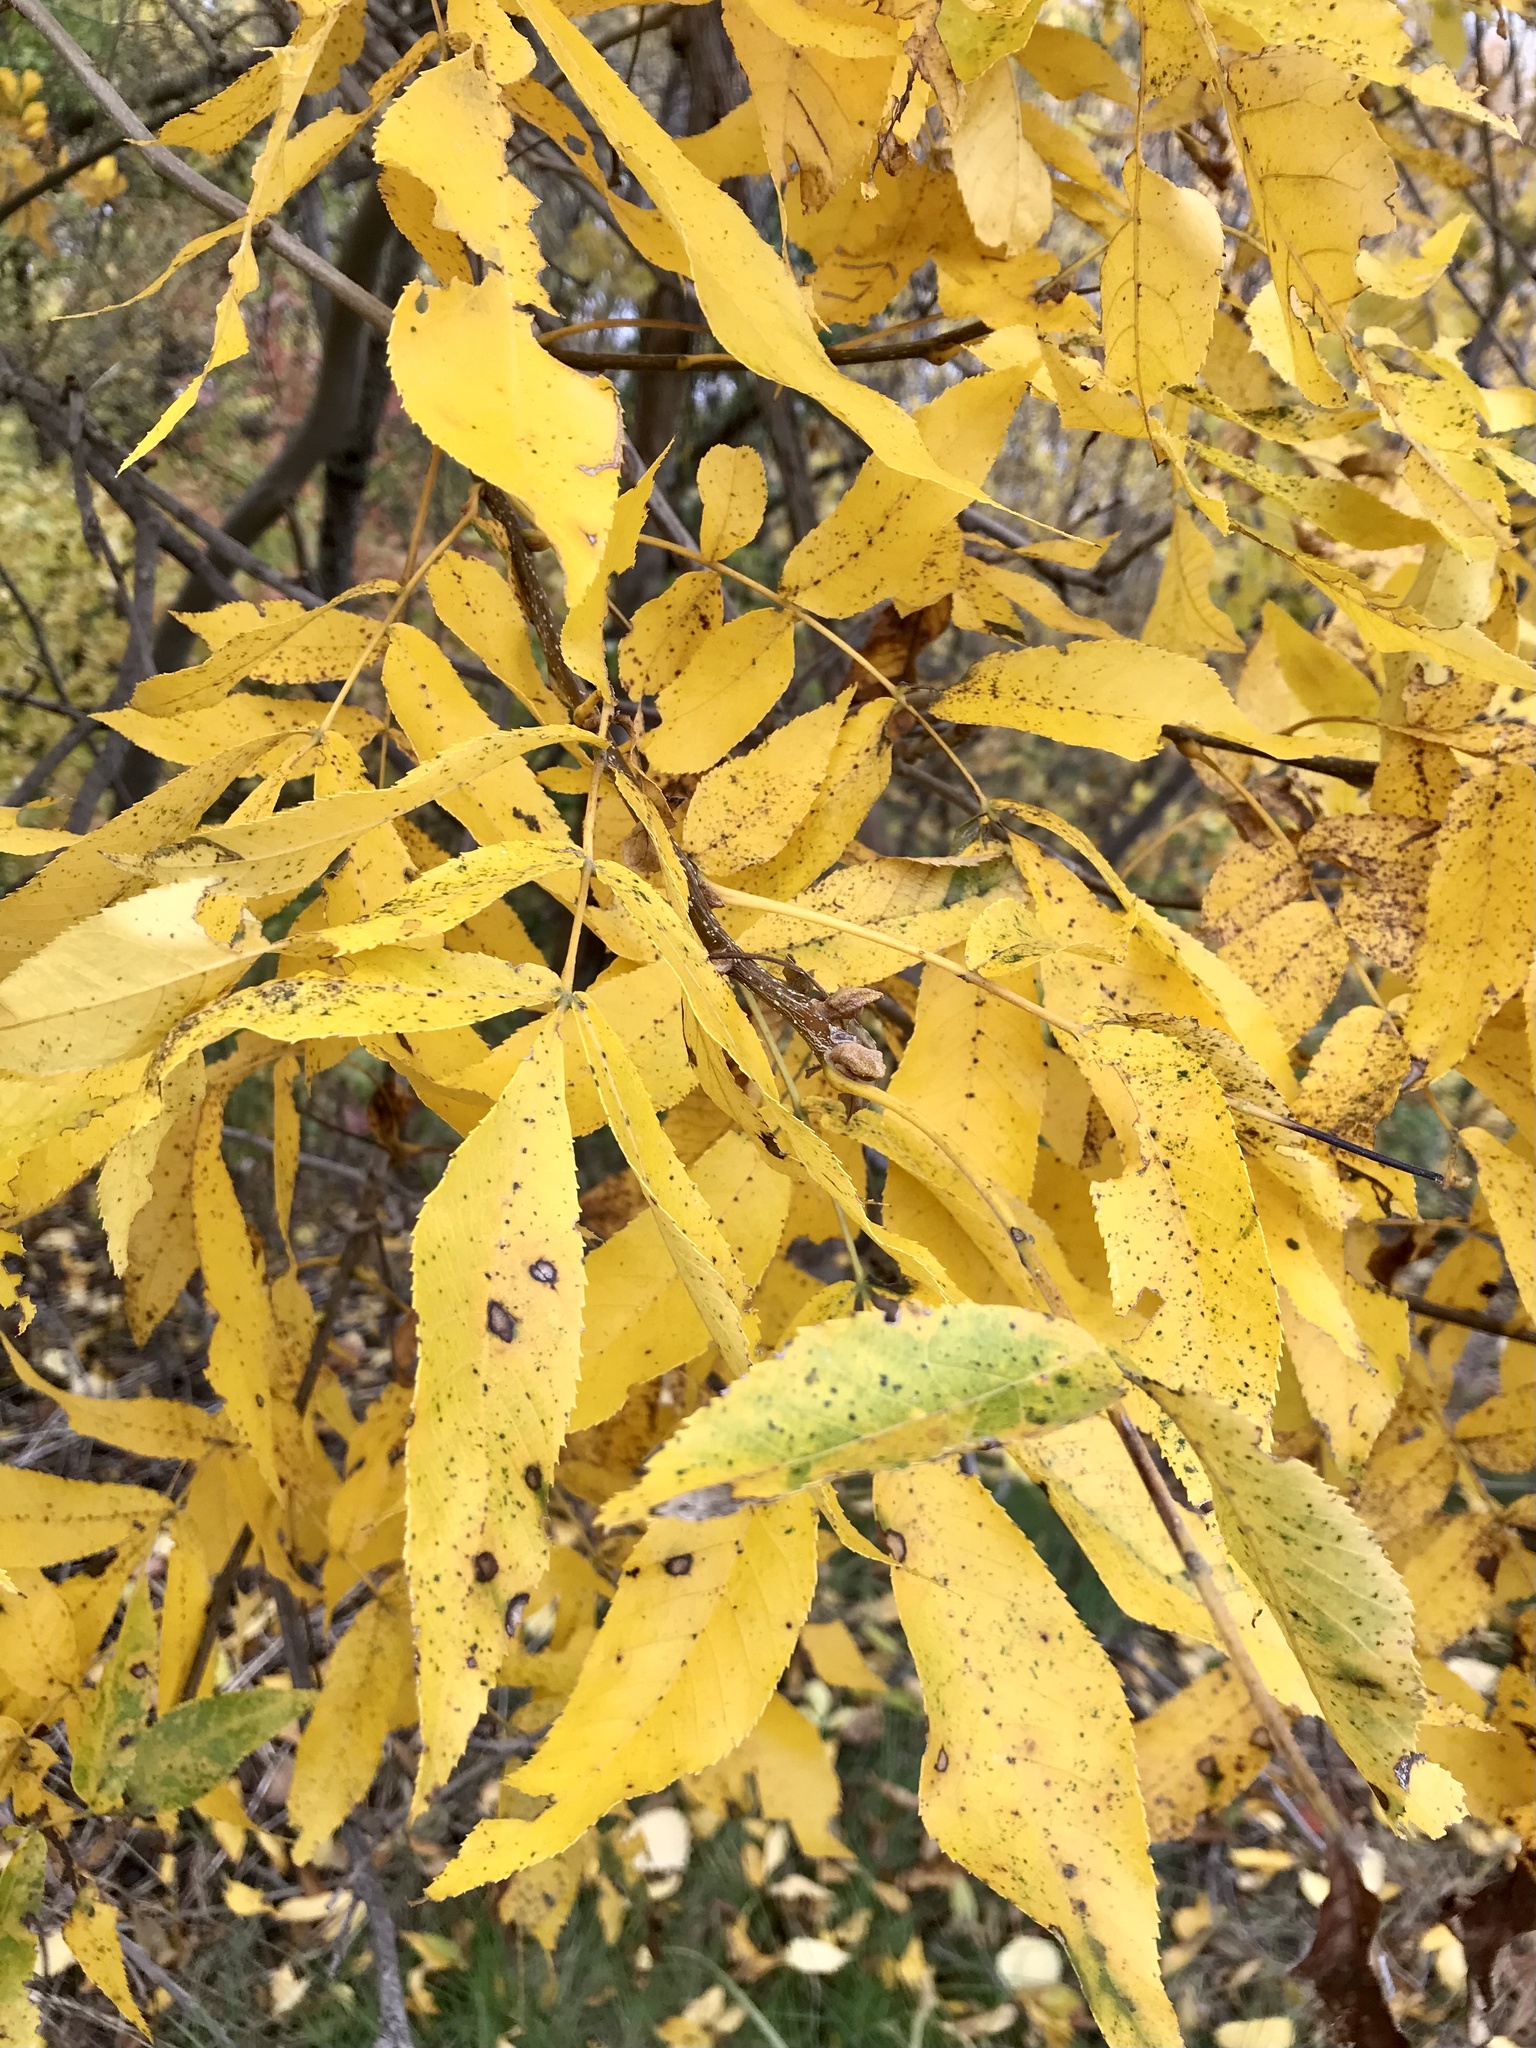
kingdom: Plantae
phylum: Tracheophyta
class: Magnoliopsida
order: Fagales
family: Juglandaceae
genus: Carya
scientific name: Carya cordiformis
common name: Bitternut hickory
